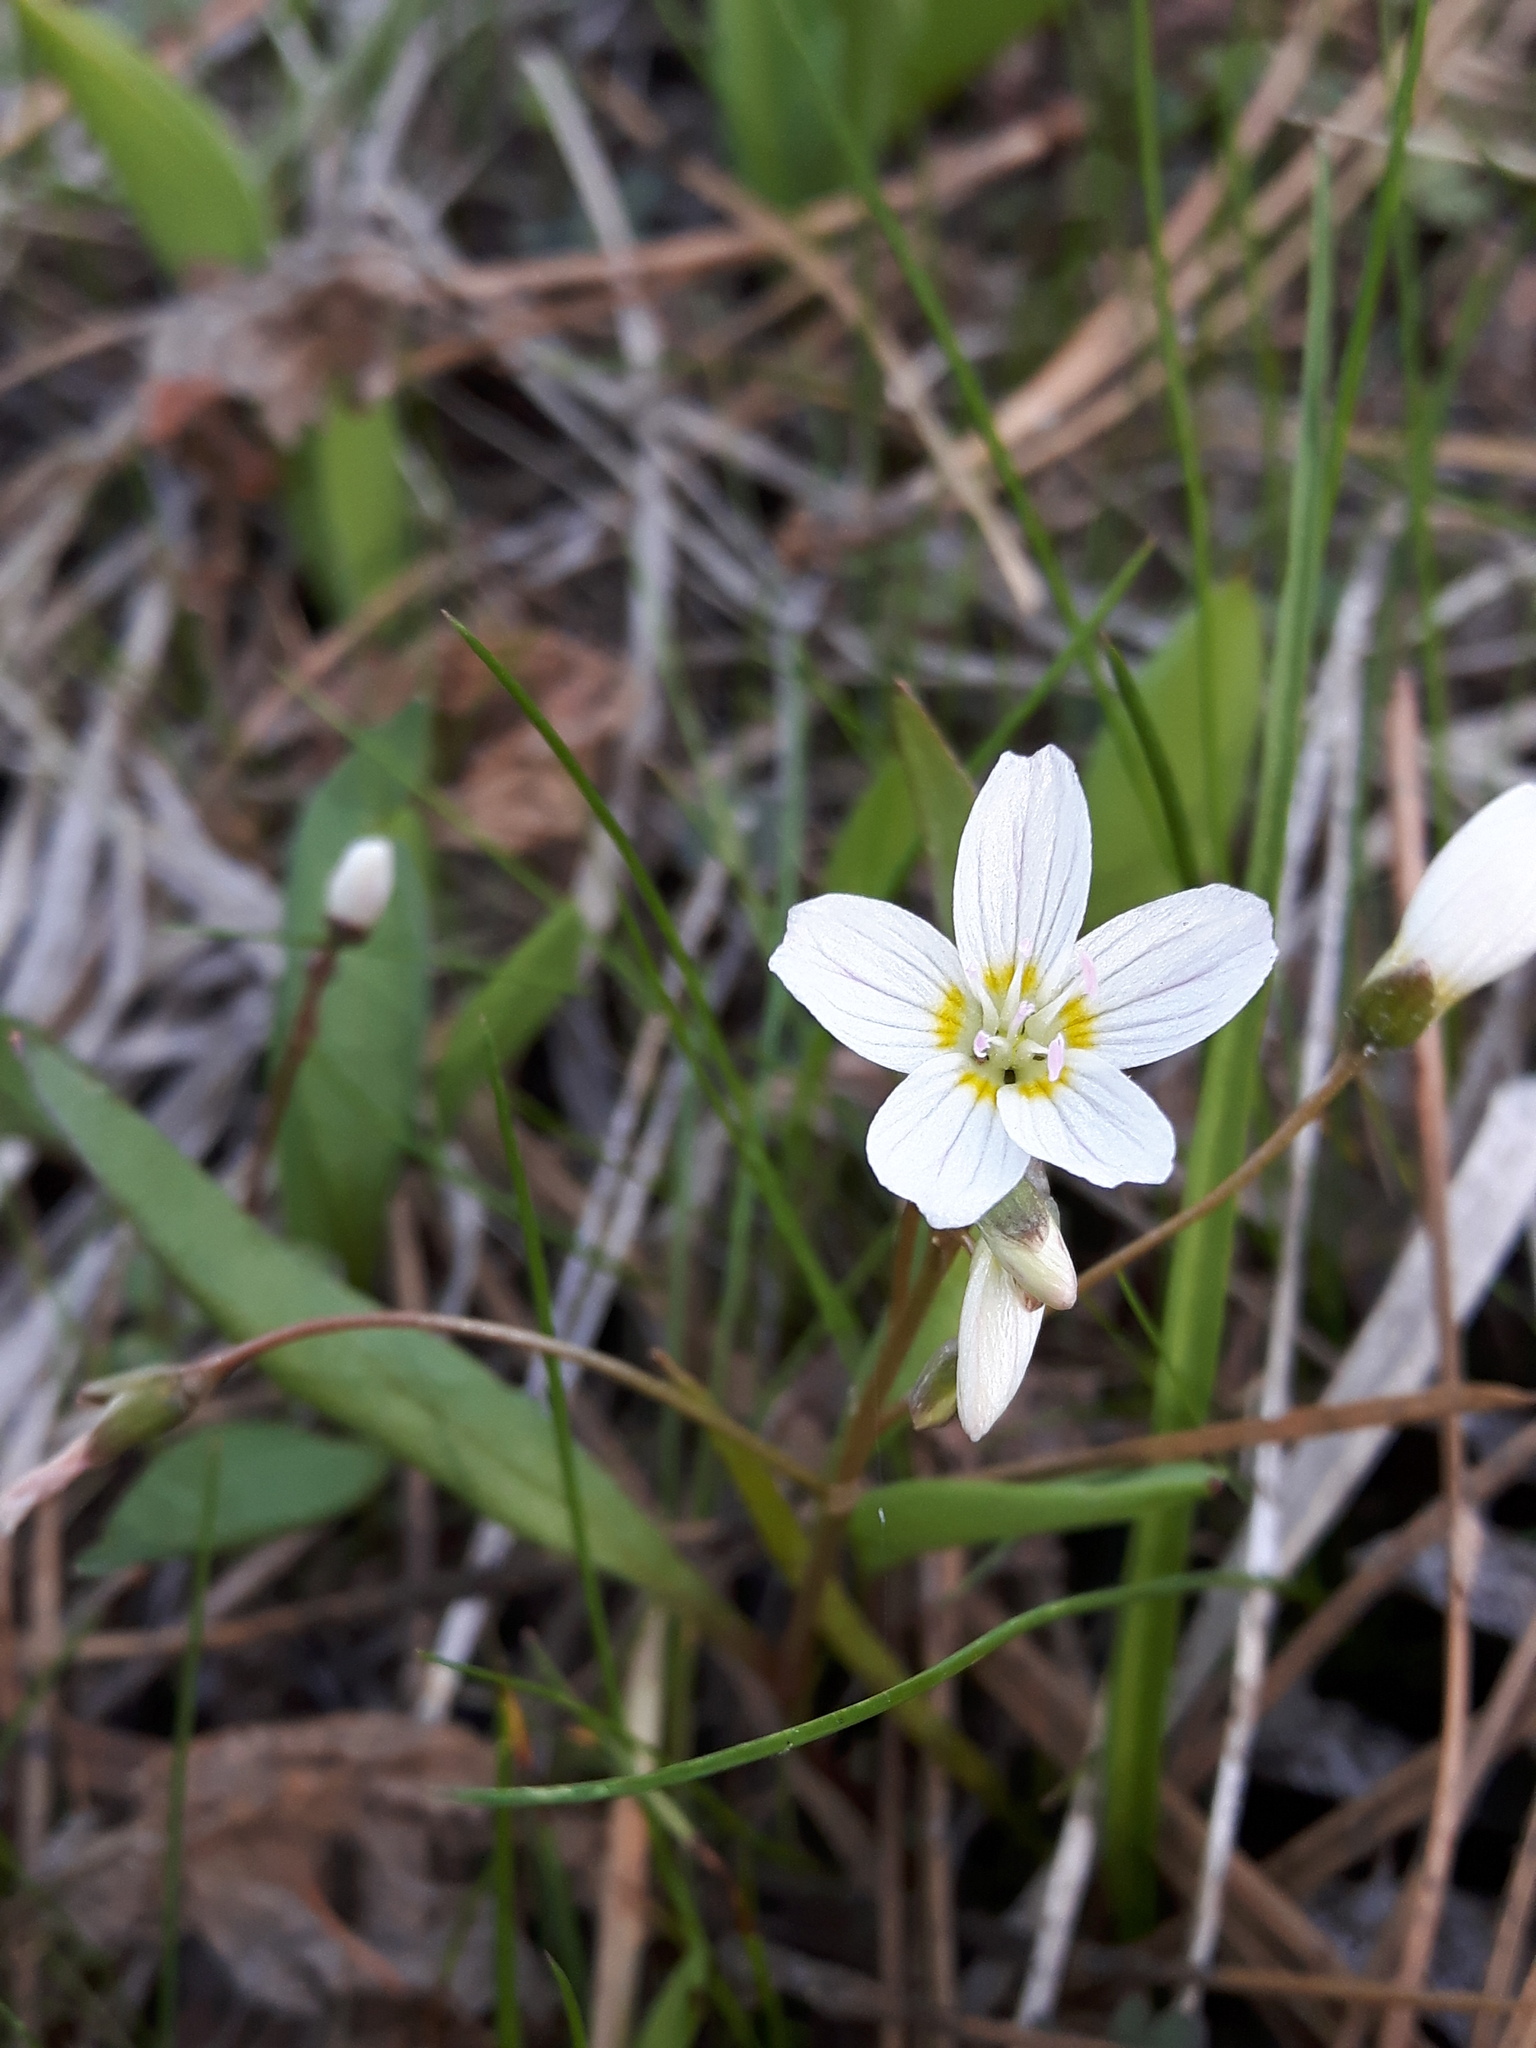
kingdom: Plantae
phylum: Tracheophyta
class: Magnoliopsida
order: Caryophyllales
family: Montiaceae
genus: Claytonia
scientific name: Claytonia lanceolata
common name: Western spring-beauty
